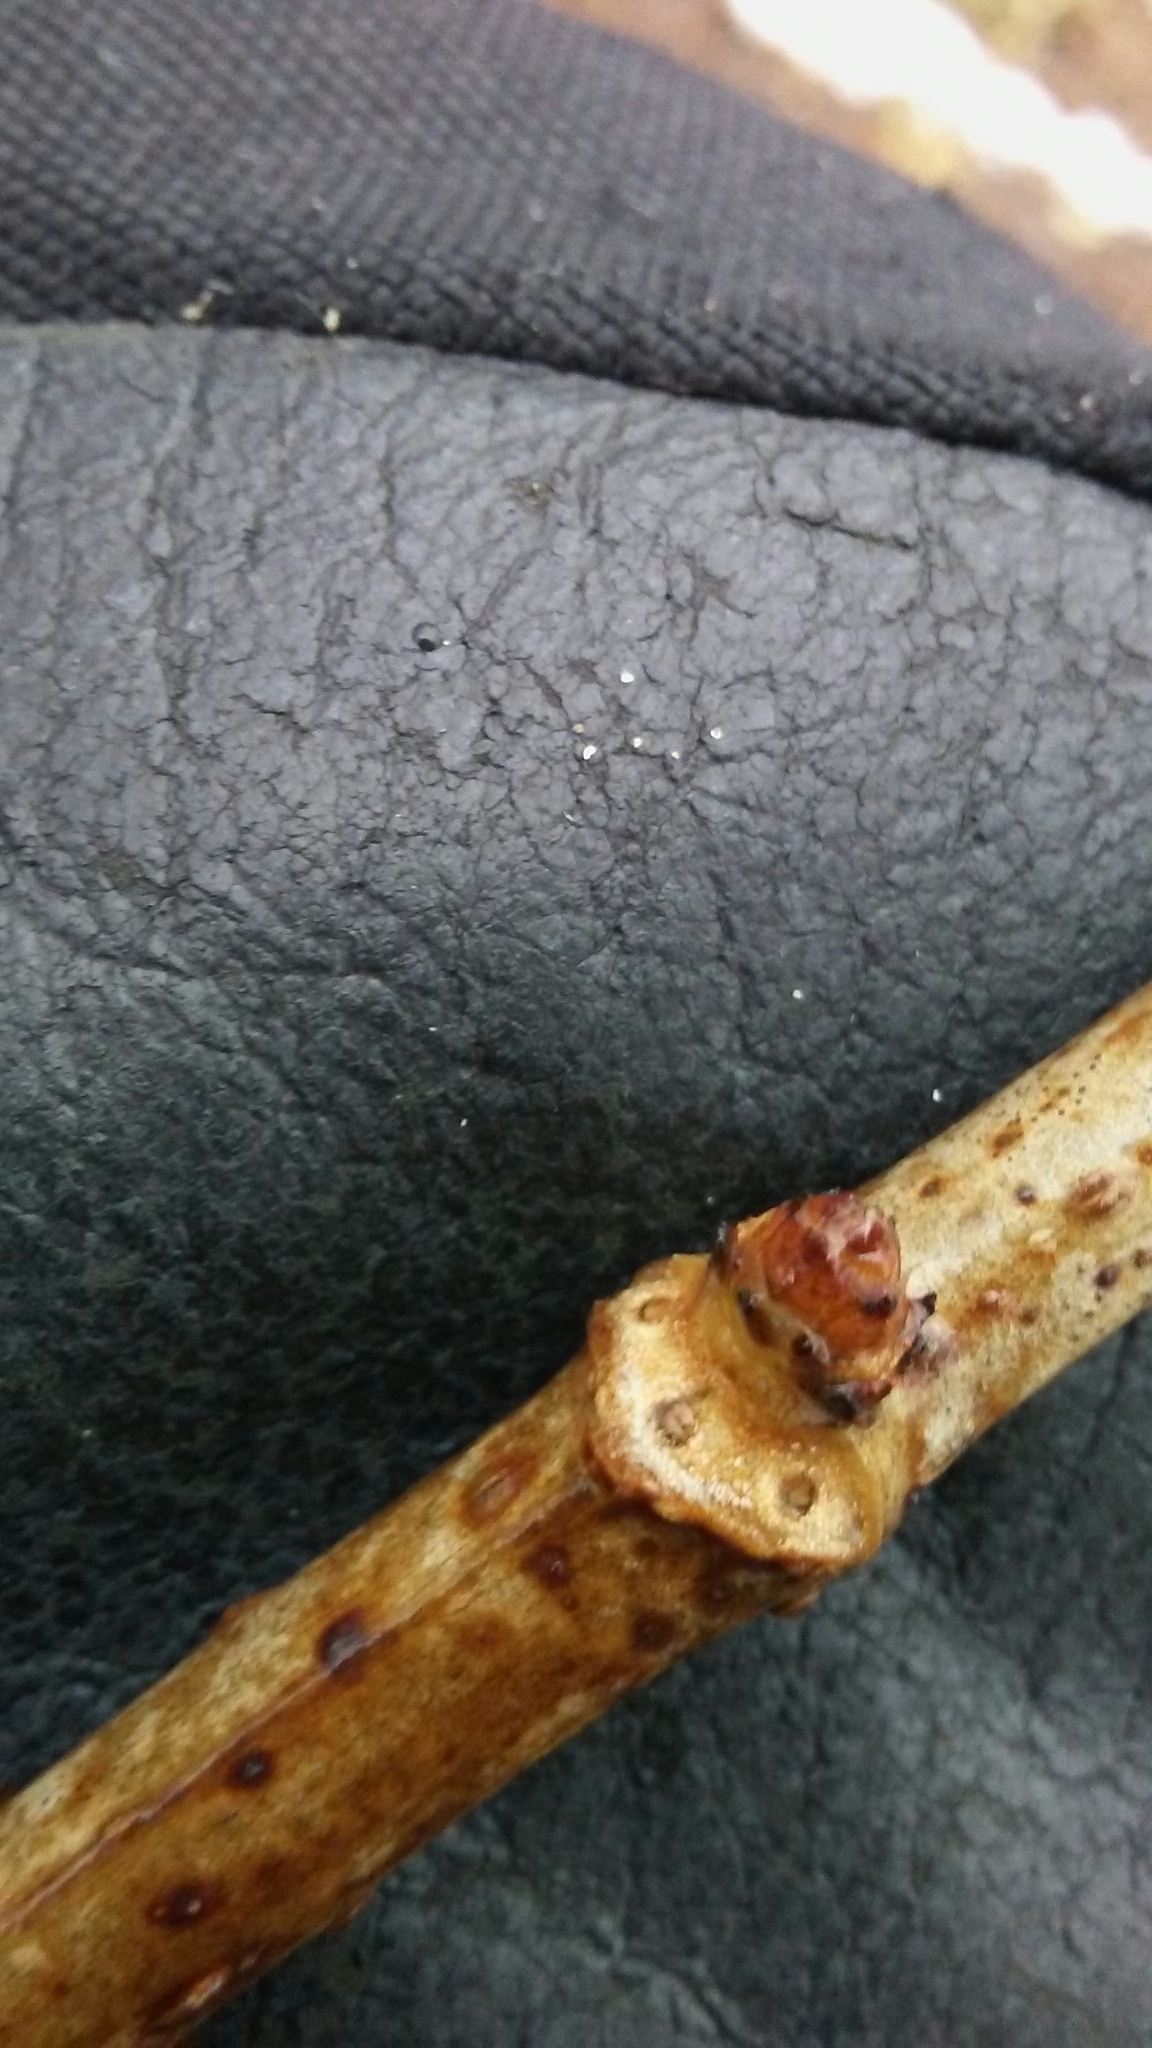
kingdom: Plantae
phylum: Tracheophyta
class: Magnoliopsida
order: Dipsacales
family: Viburnaceae
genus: Sambucus
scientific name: Sambucus canadensis
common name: American elder
